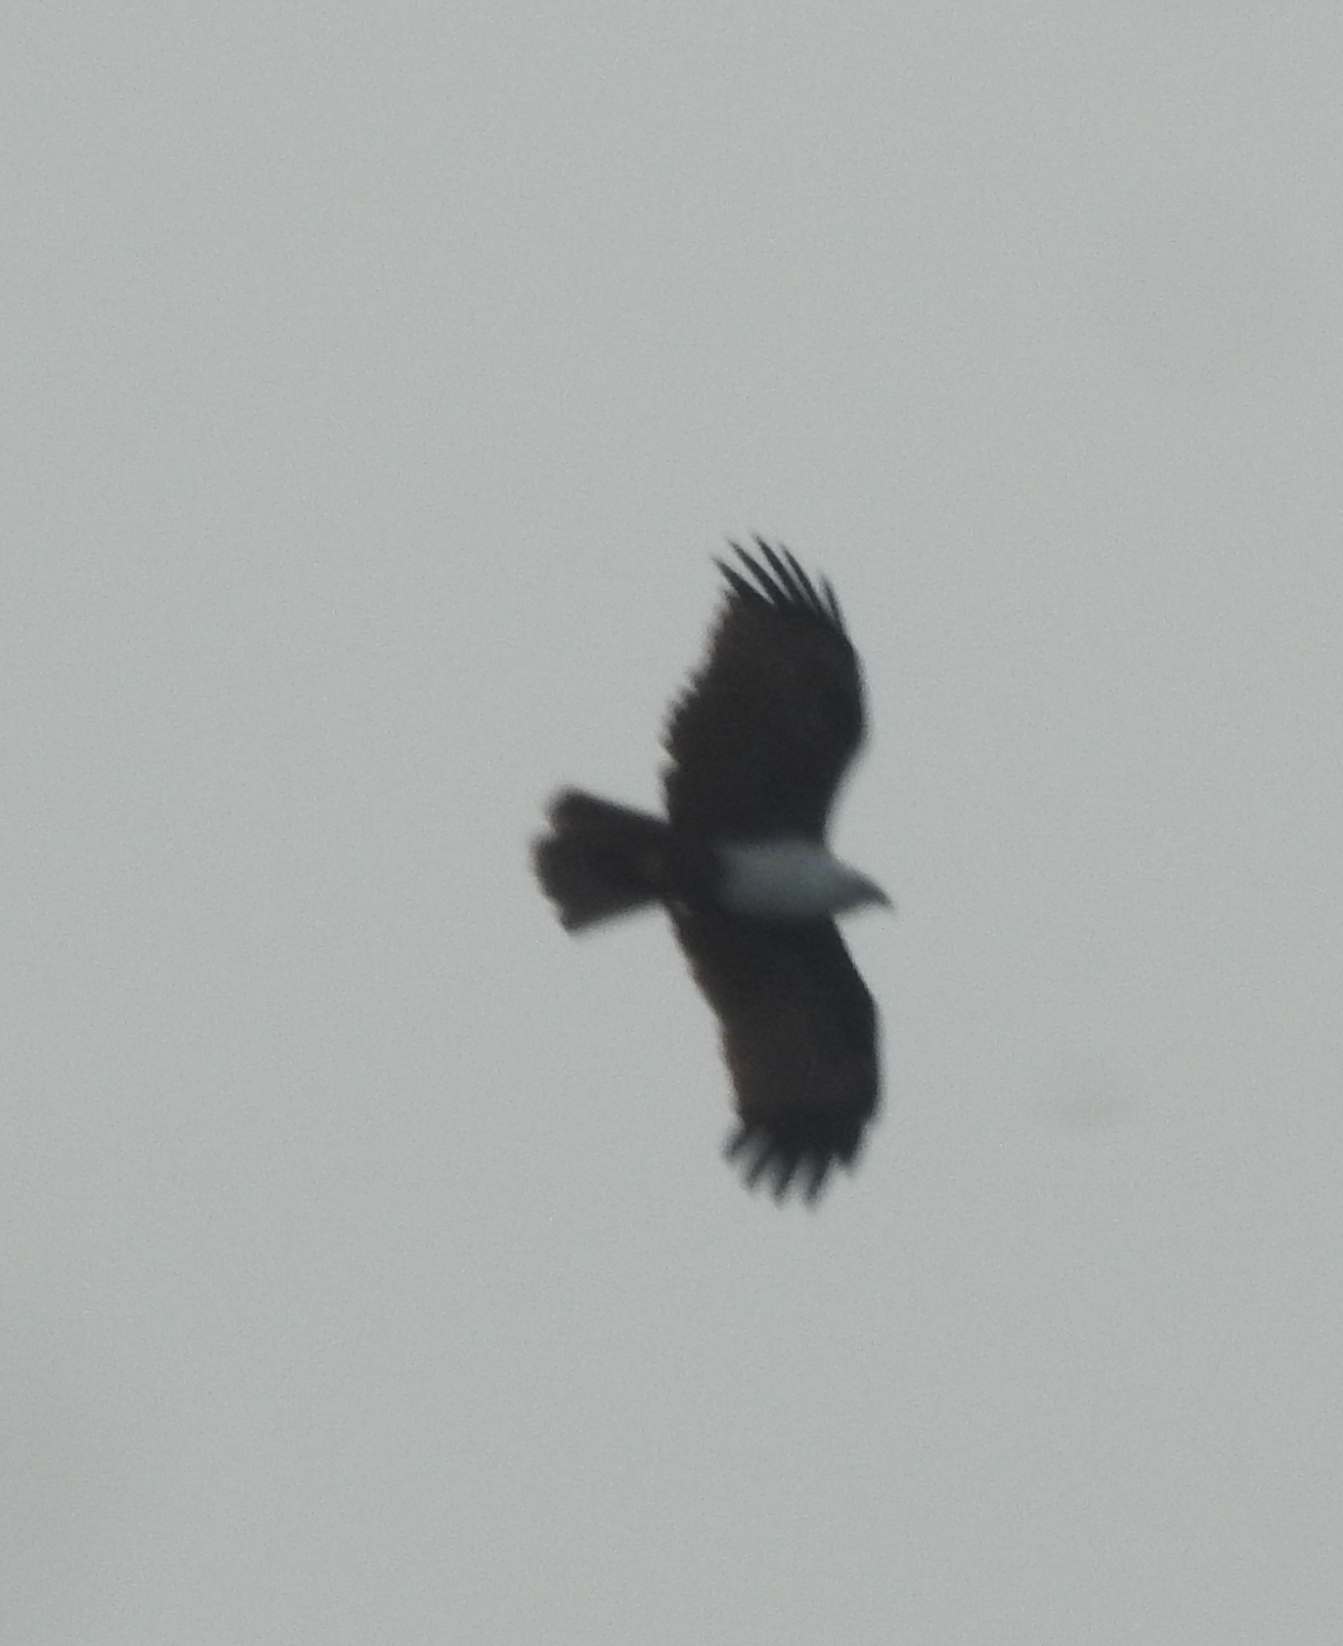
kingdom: Animalia
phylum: Chordata
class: Aves
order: Accipitriformes
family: Accipitridae
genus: Haliastur
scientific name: Haliastur indus
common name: Brahminy kite
